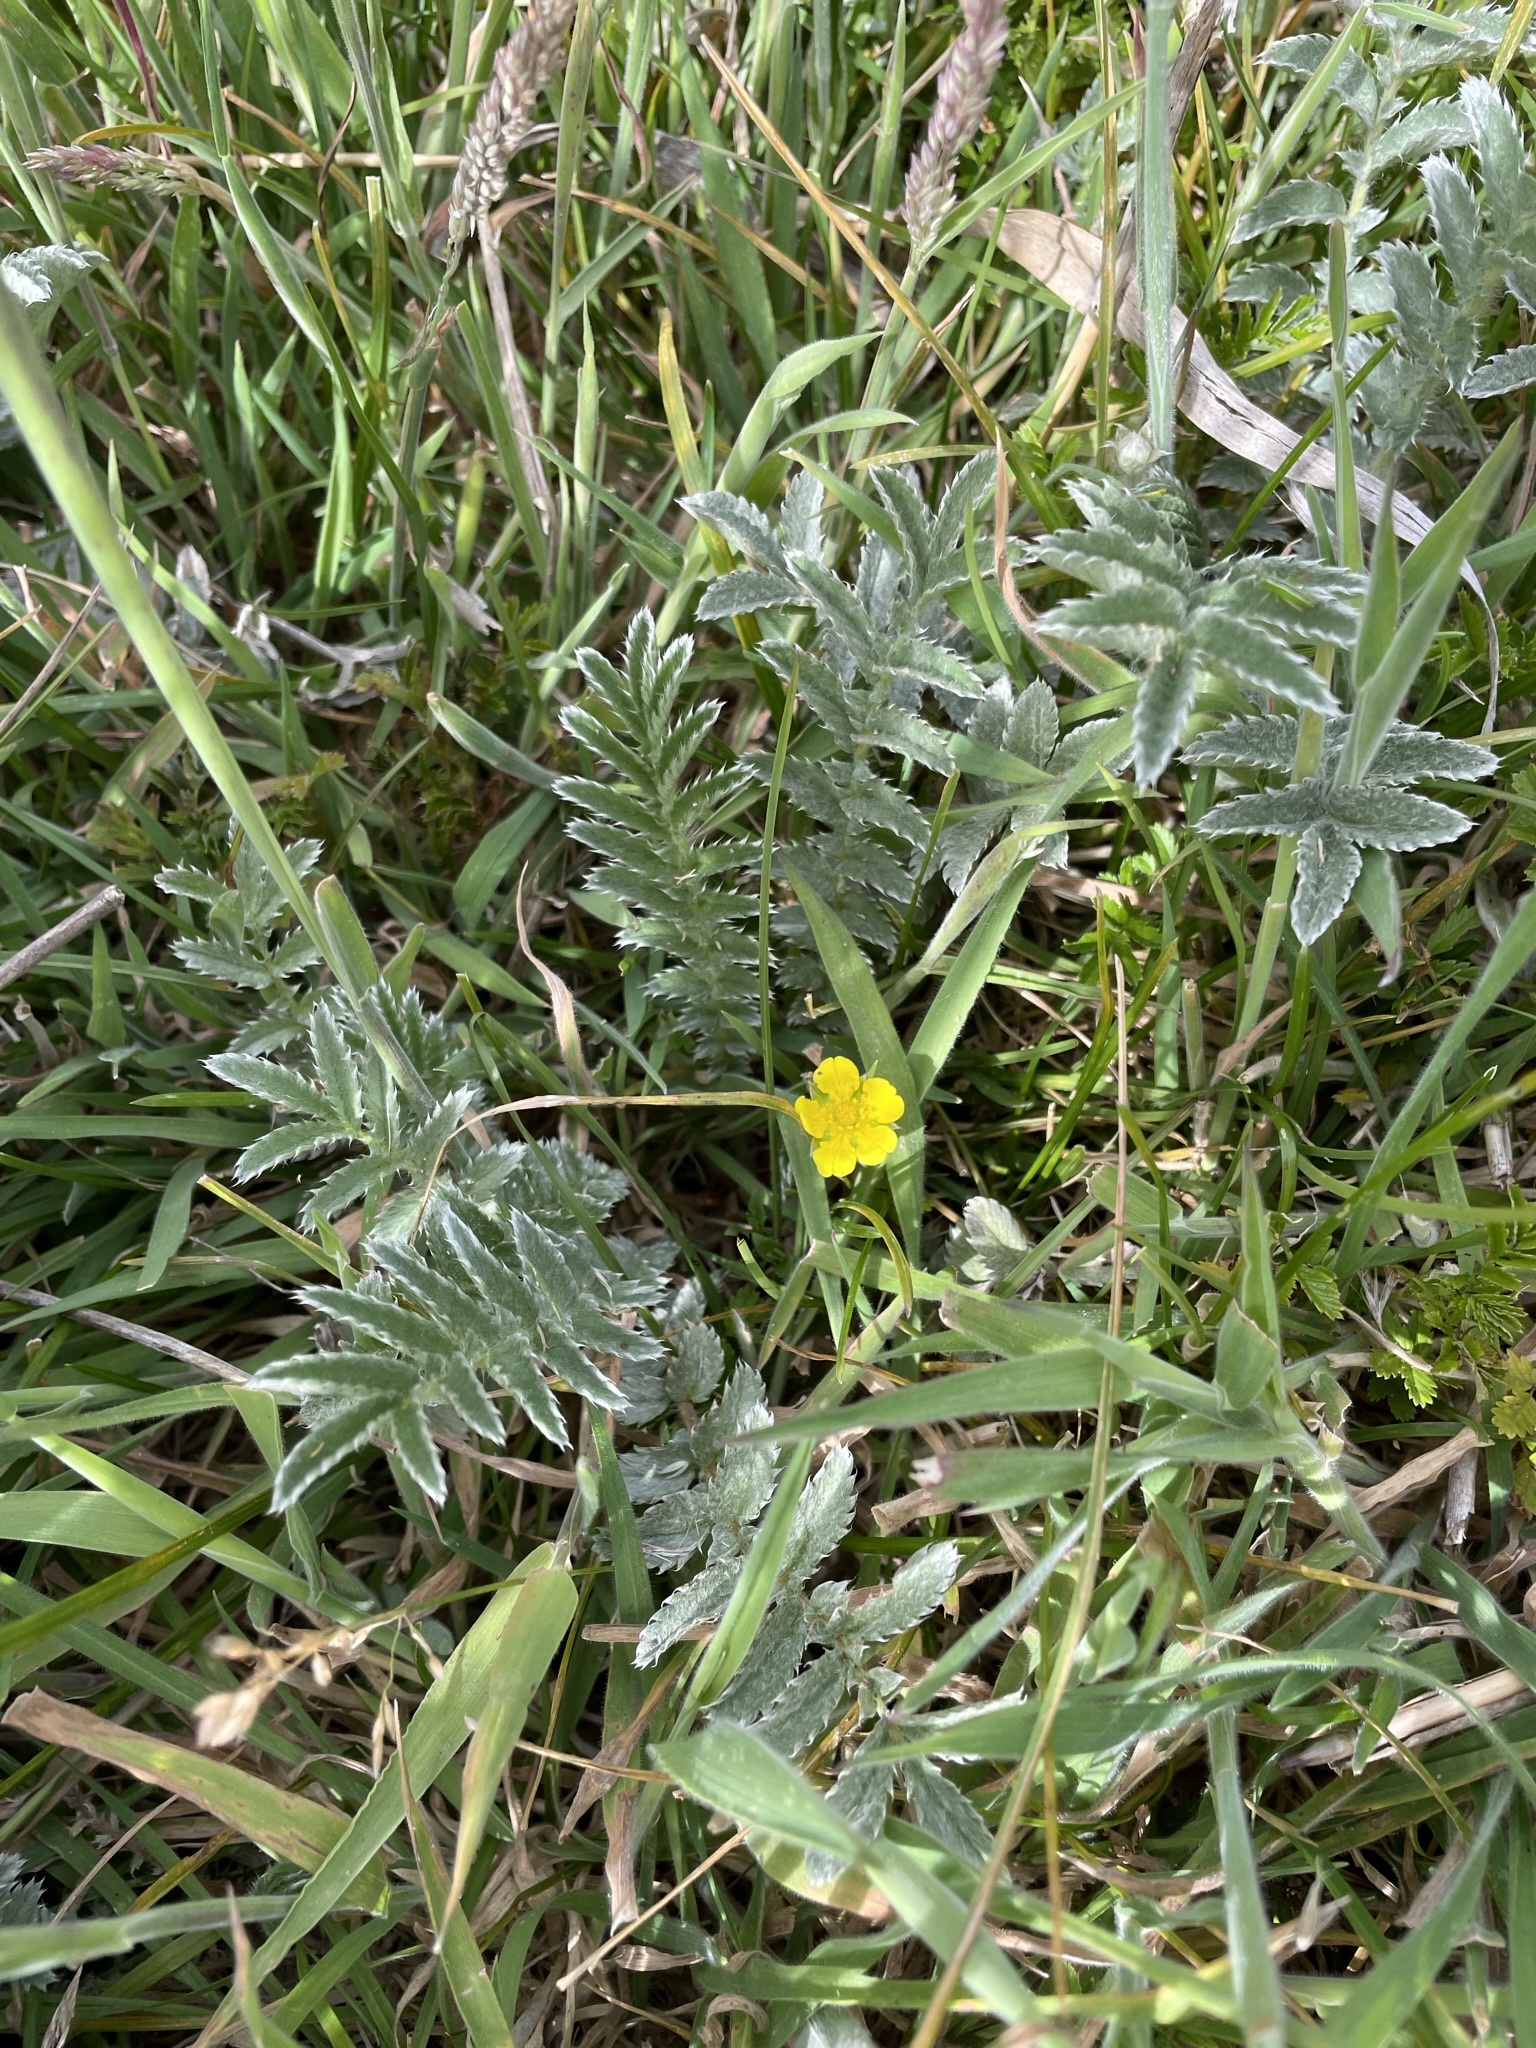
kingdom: Plantae
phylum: Tracheophyta
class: Magnoliopsida
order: Rosales
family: Rosaceae
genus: Argentina
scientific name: Argentina anserina
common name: Common silverweed
